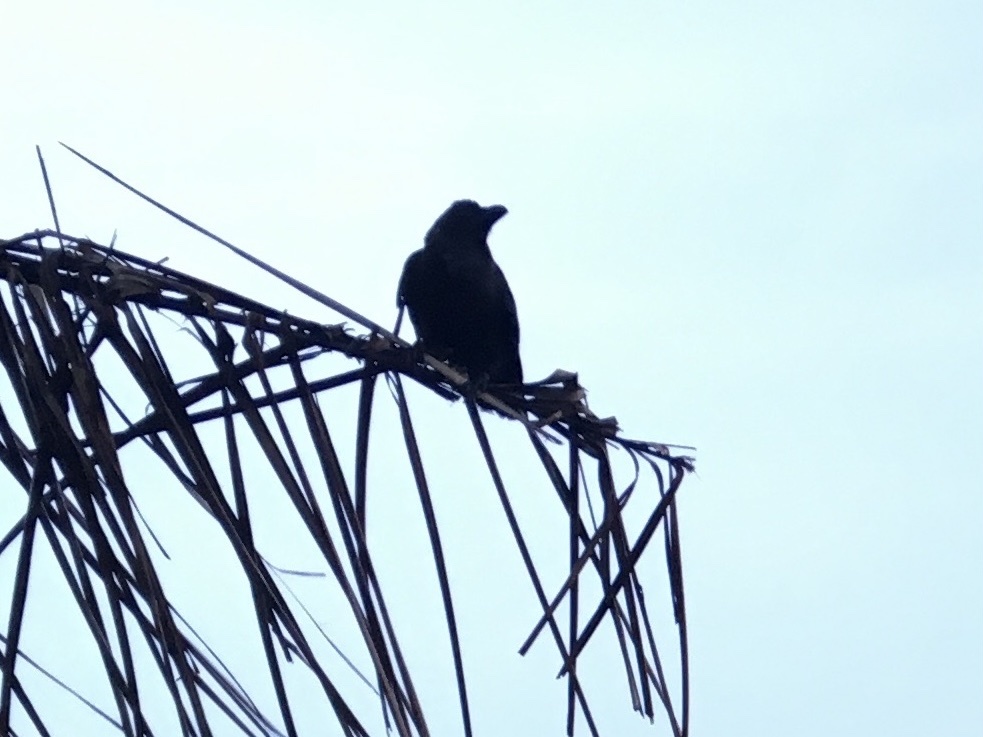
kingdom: Animalia
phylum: Chordata
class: Aves
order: Passeriformes
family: Corvidae
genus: Corvus
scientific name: Corvus splendens
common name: House crow
